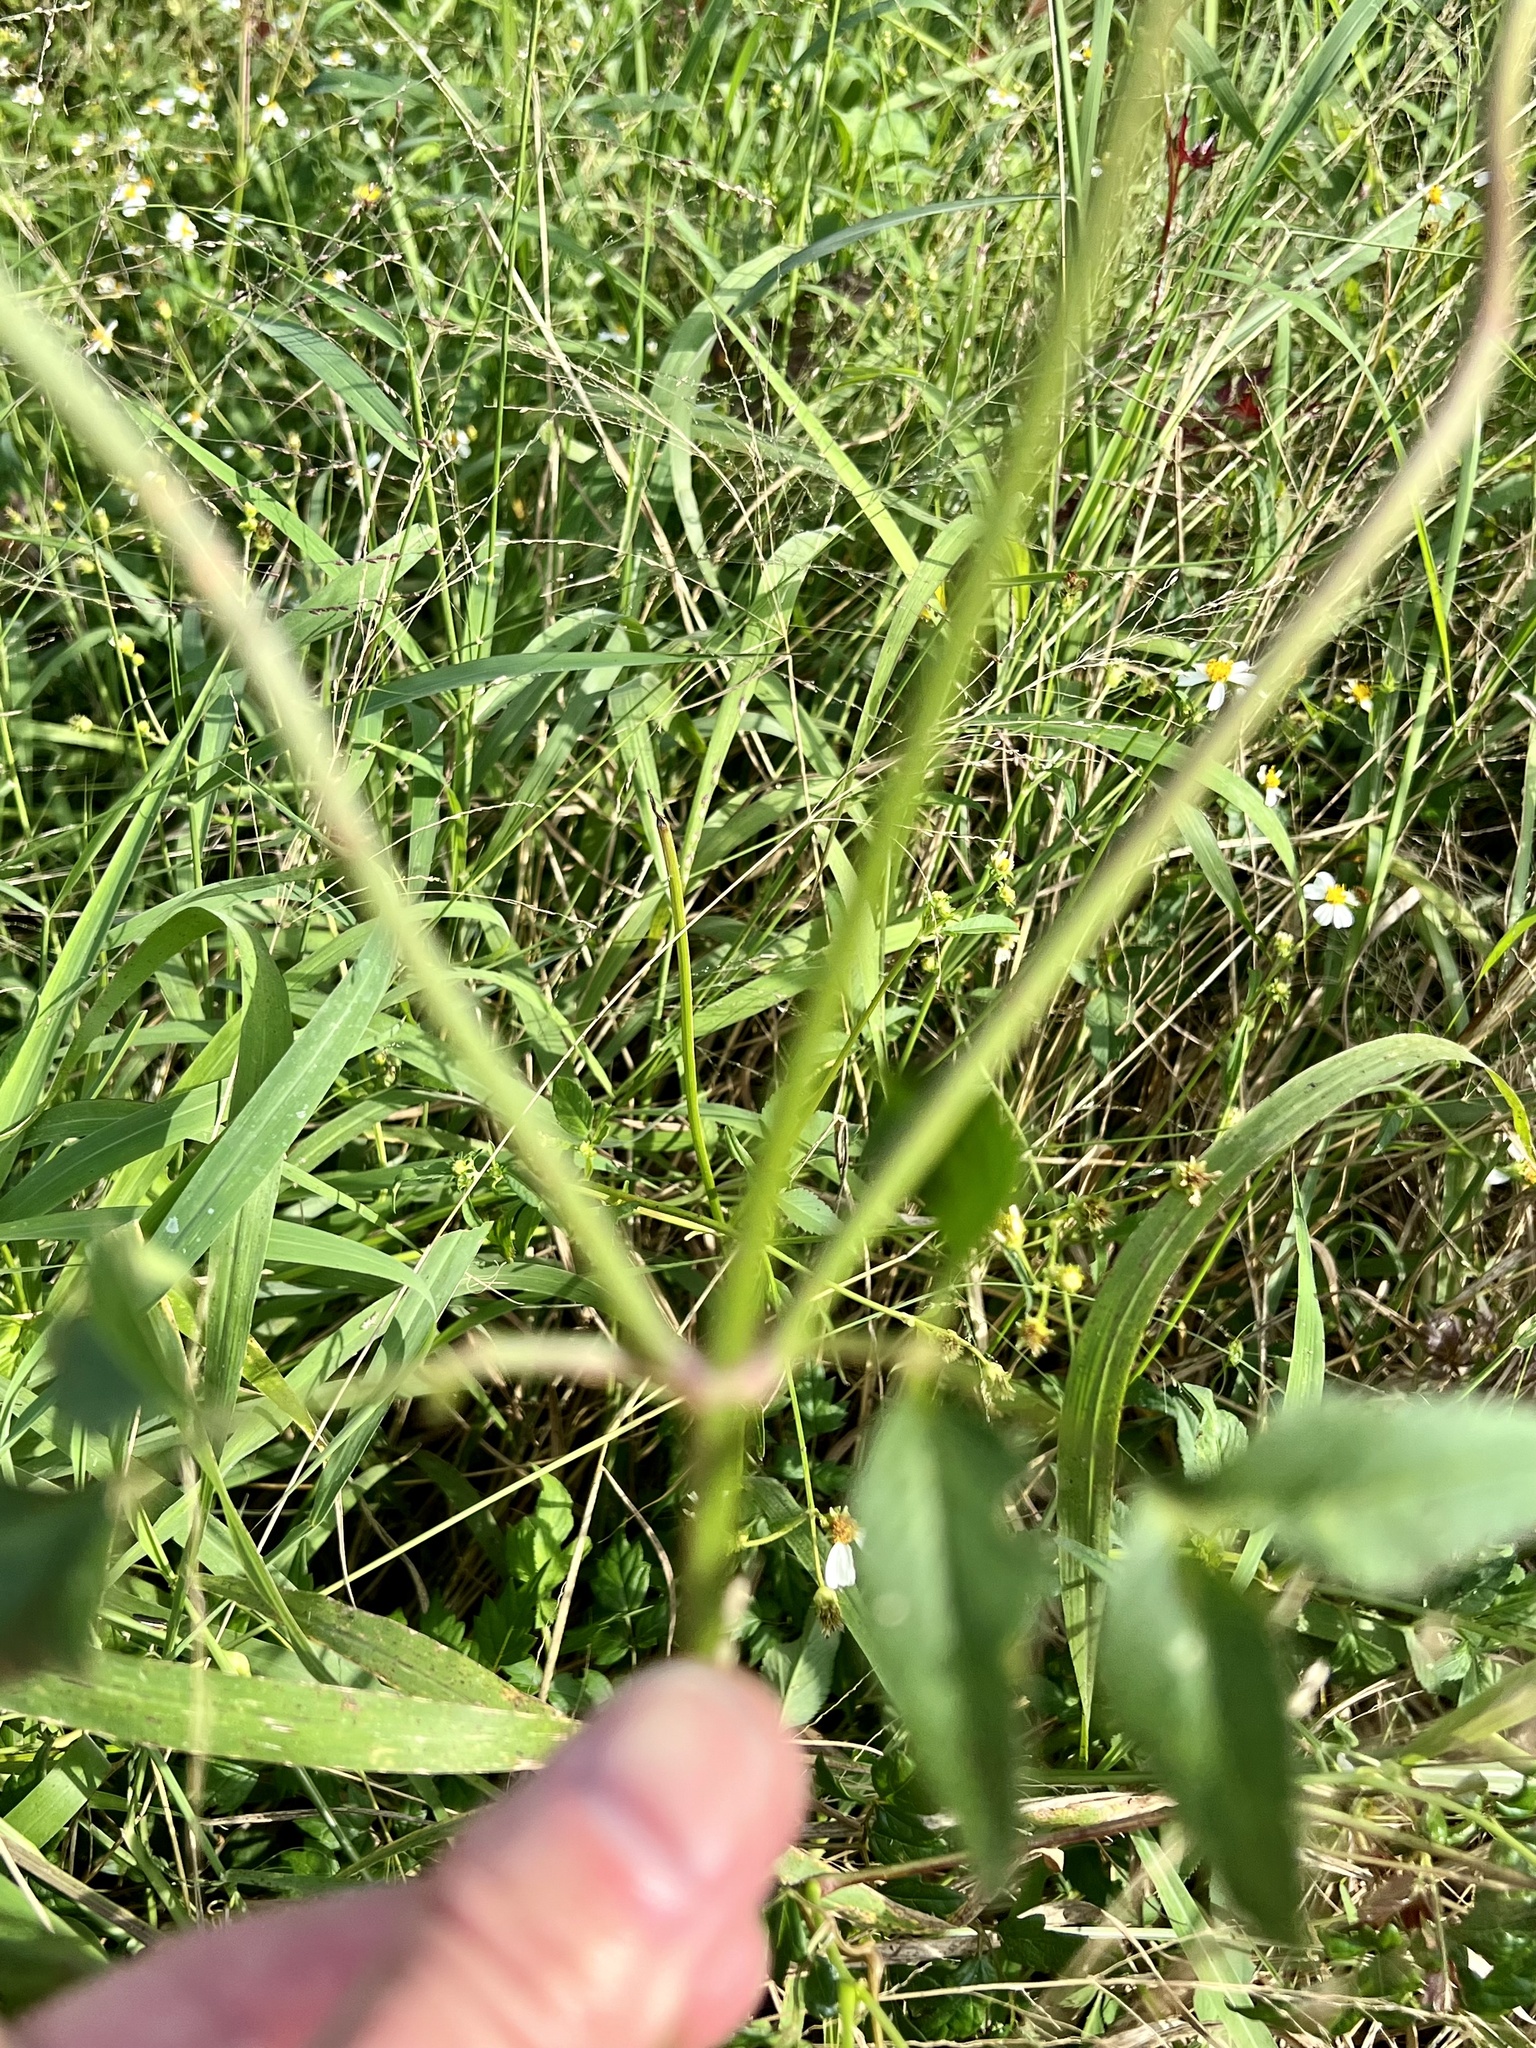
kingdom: Plantae
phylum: Tracheophyta
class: Magnoliopsida
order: Asterales
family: Asteraceae
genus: Bidens
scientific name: Bidens alba
